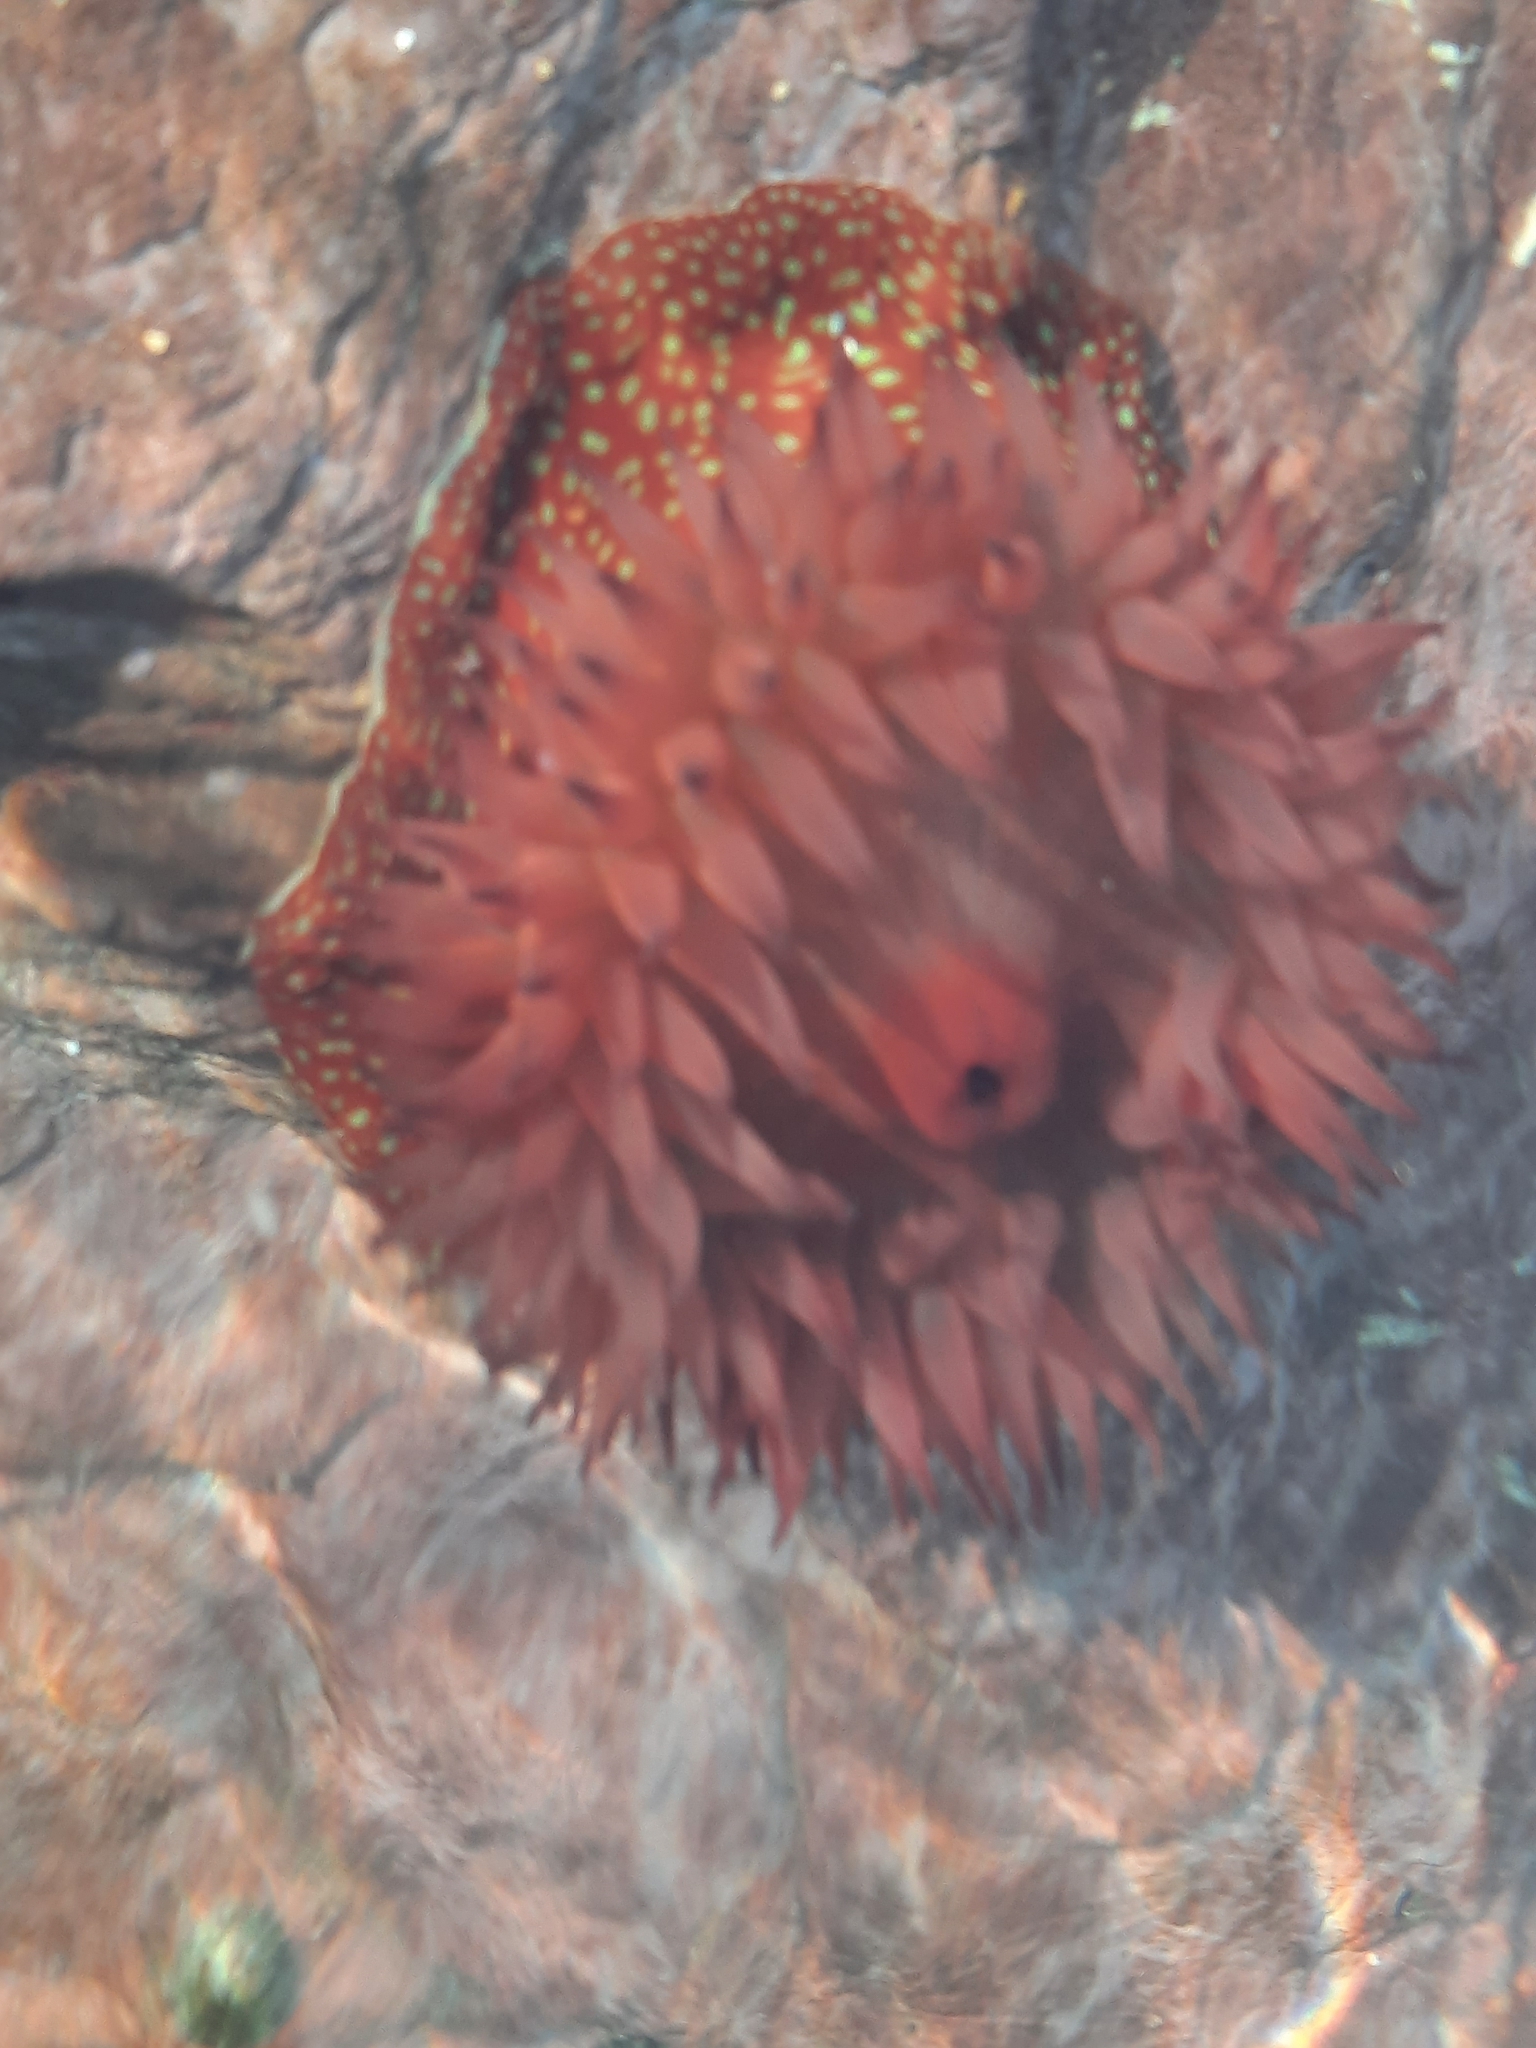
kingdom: Animalia
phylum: Cnidaria
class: Anthozoa
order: Actiniaria
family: Actiniidae
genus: Actinia
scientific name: Actinia fragacea
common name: Strawberry anemone
